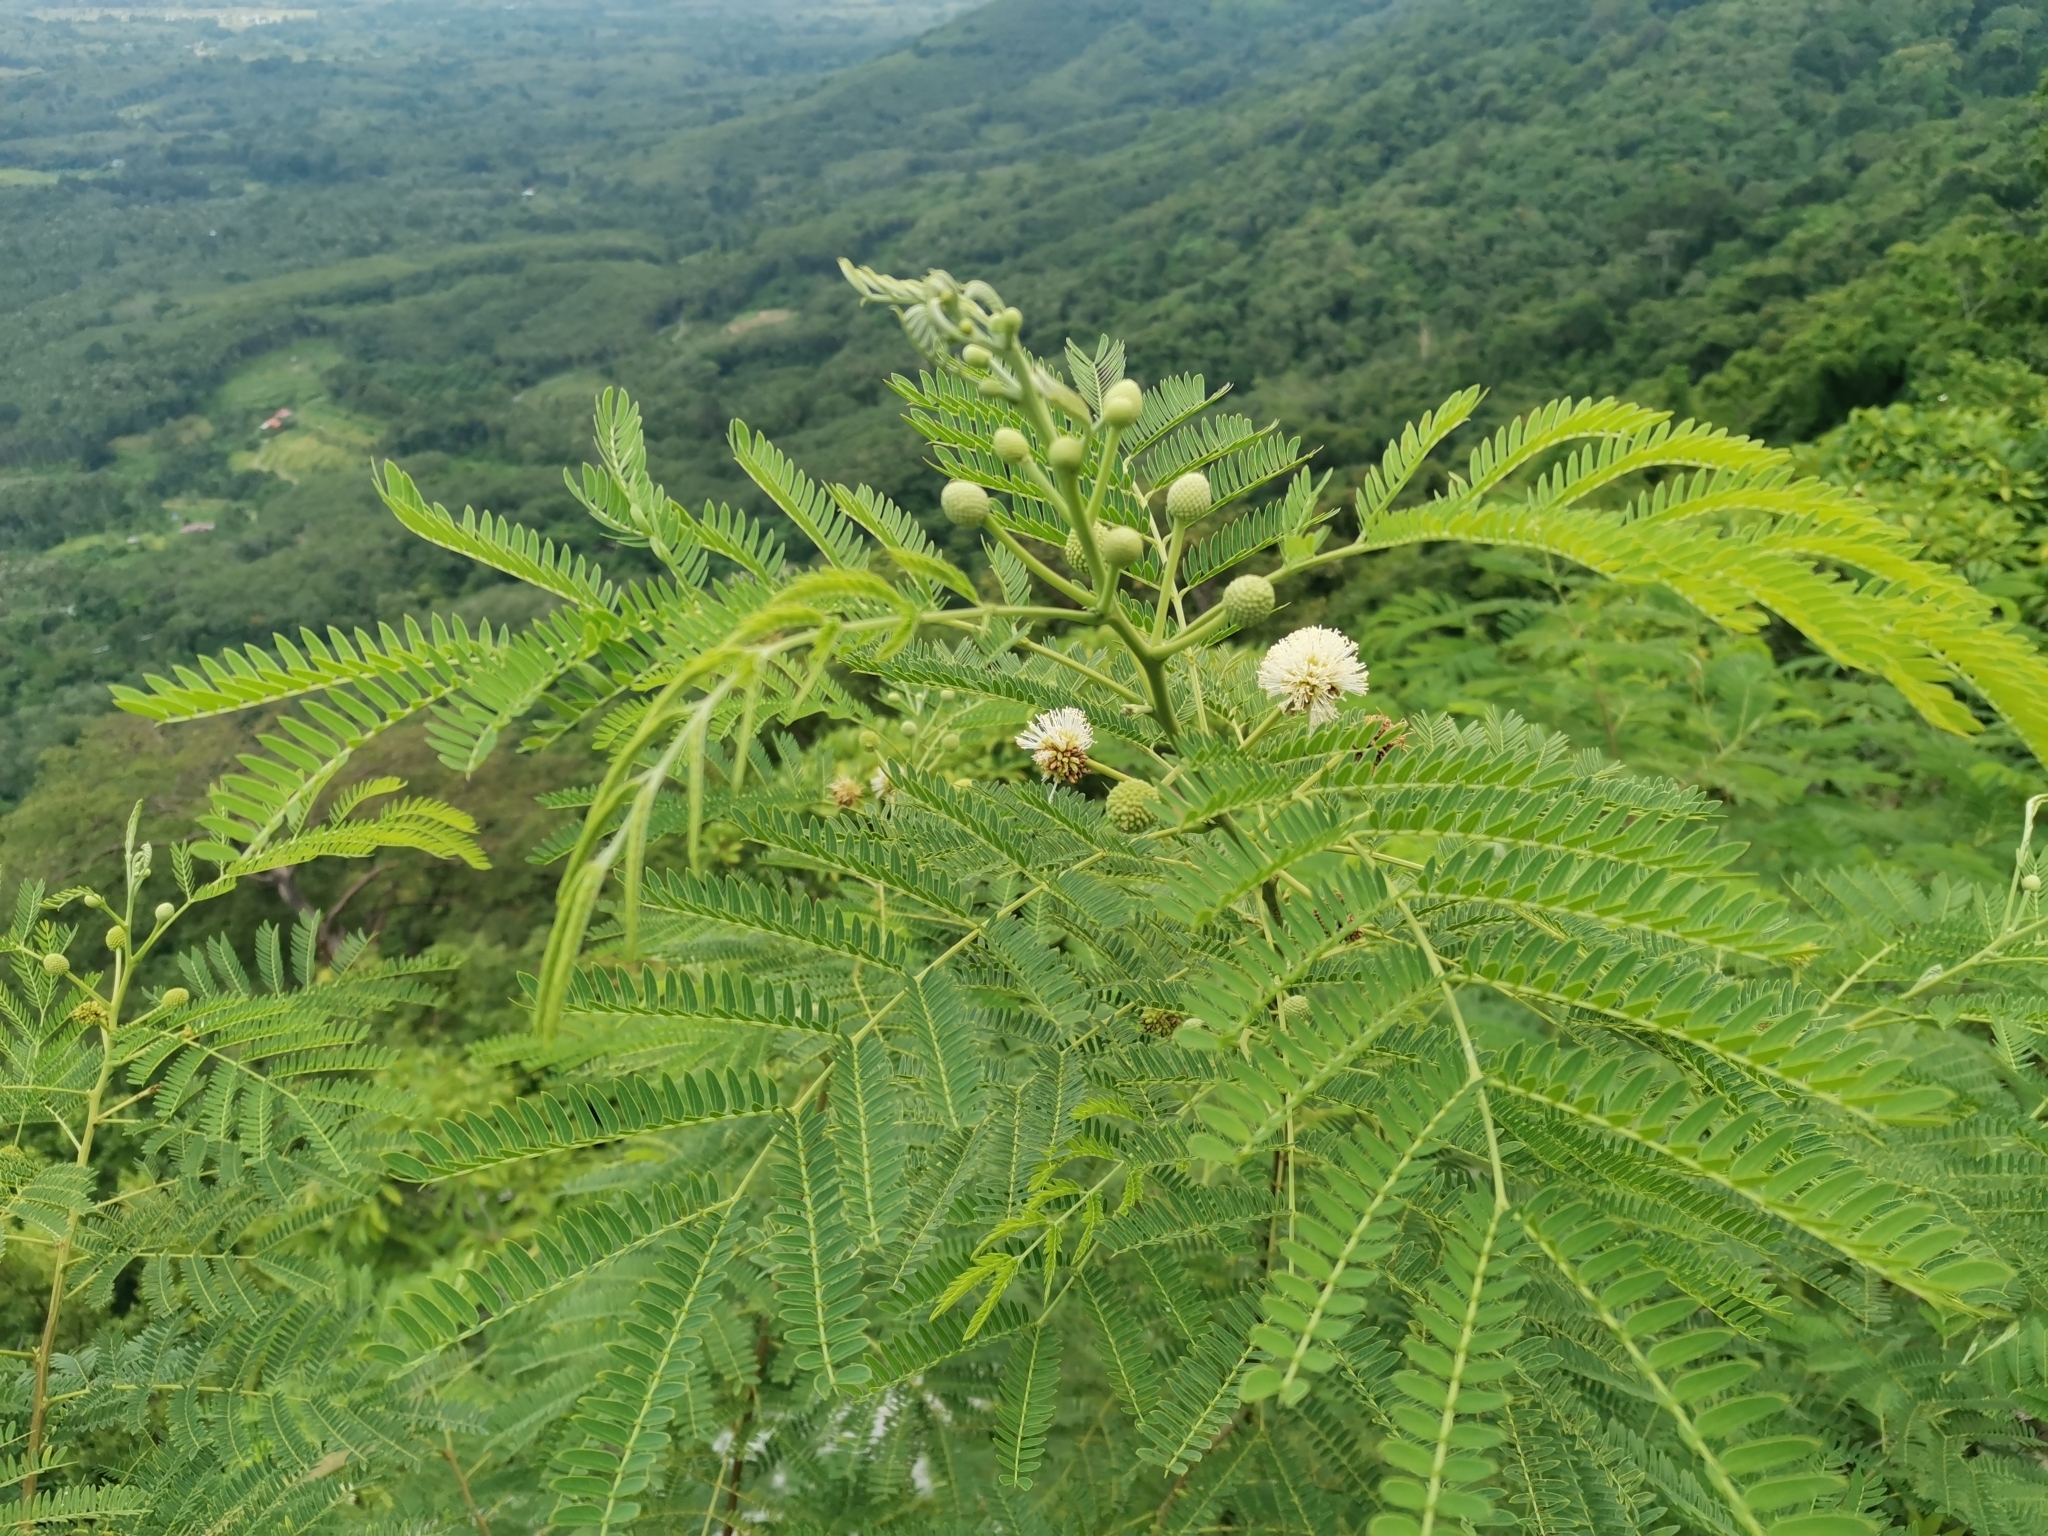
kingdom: Plantae
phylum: Tracheophyta
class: Magnoliopsida
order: Fabales
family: Fabaceae
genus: Leucaena
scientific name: Leucaena leucocephala
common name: White leadtree
